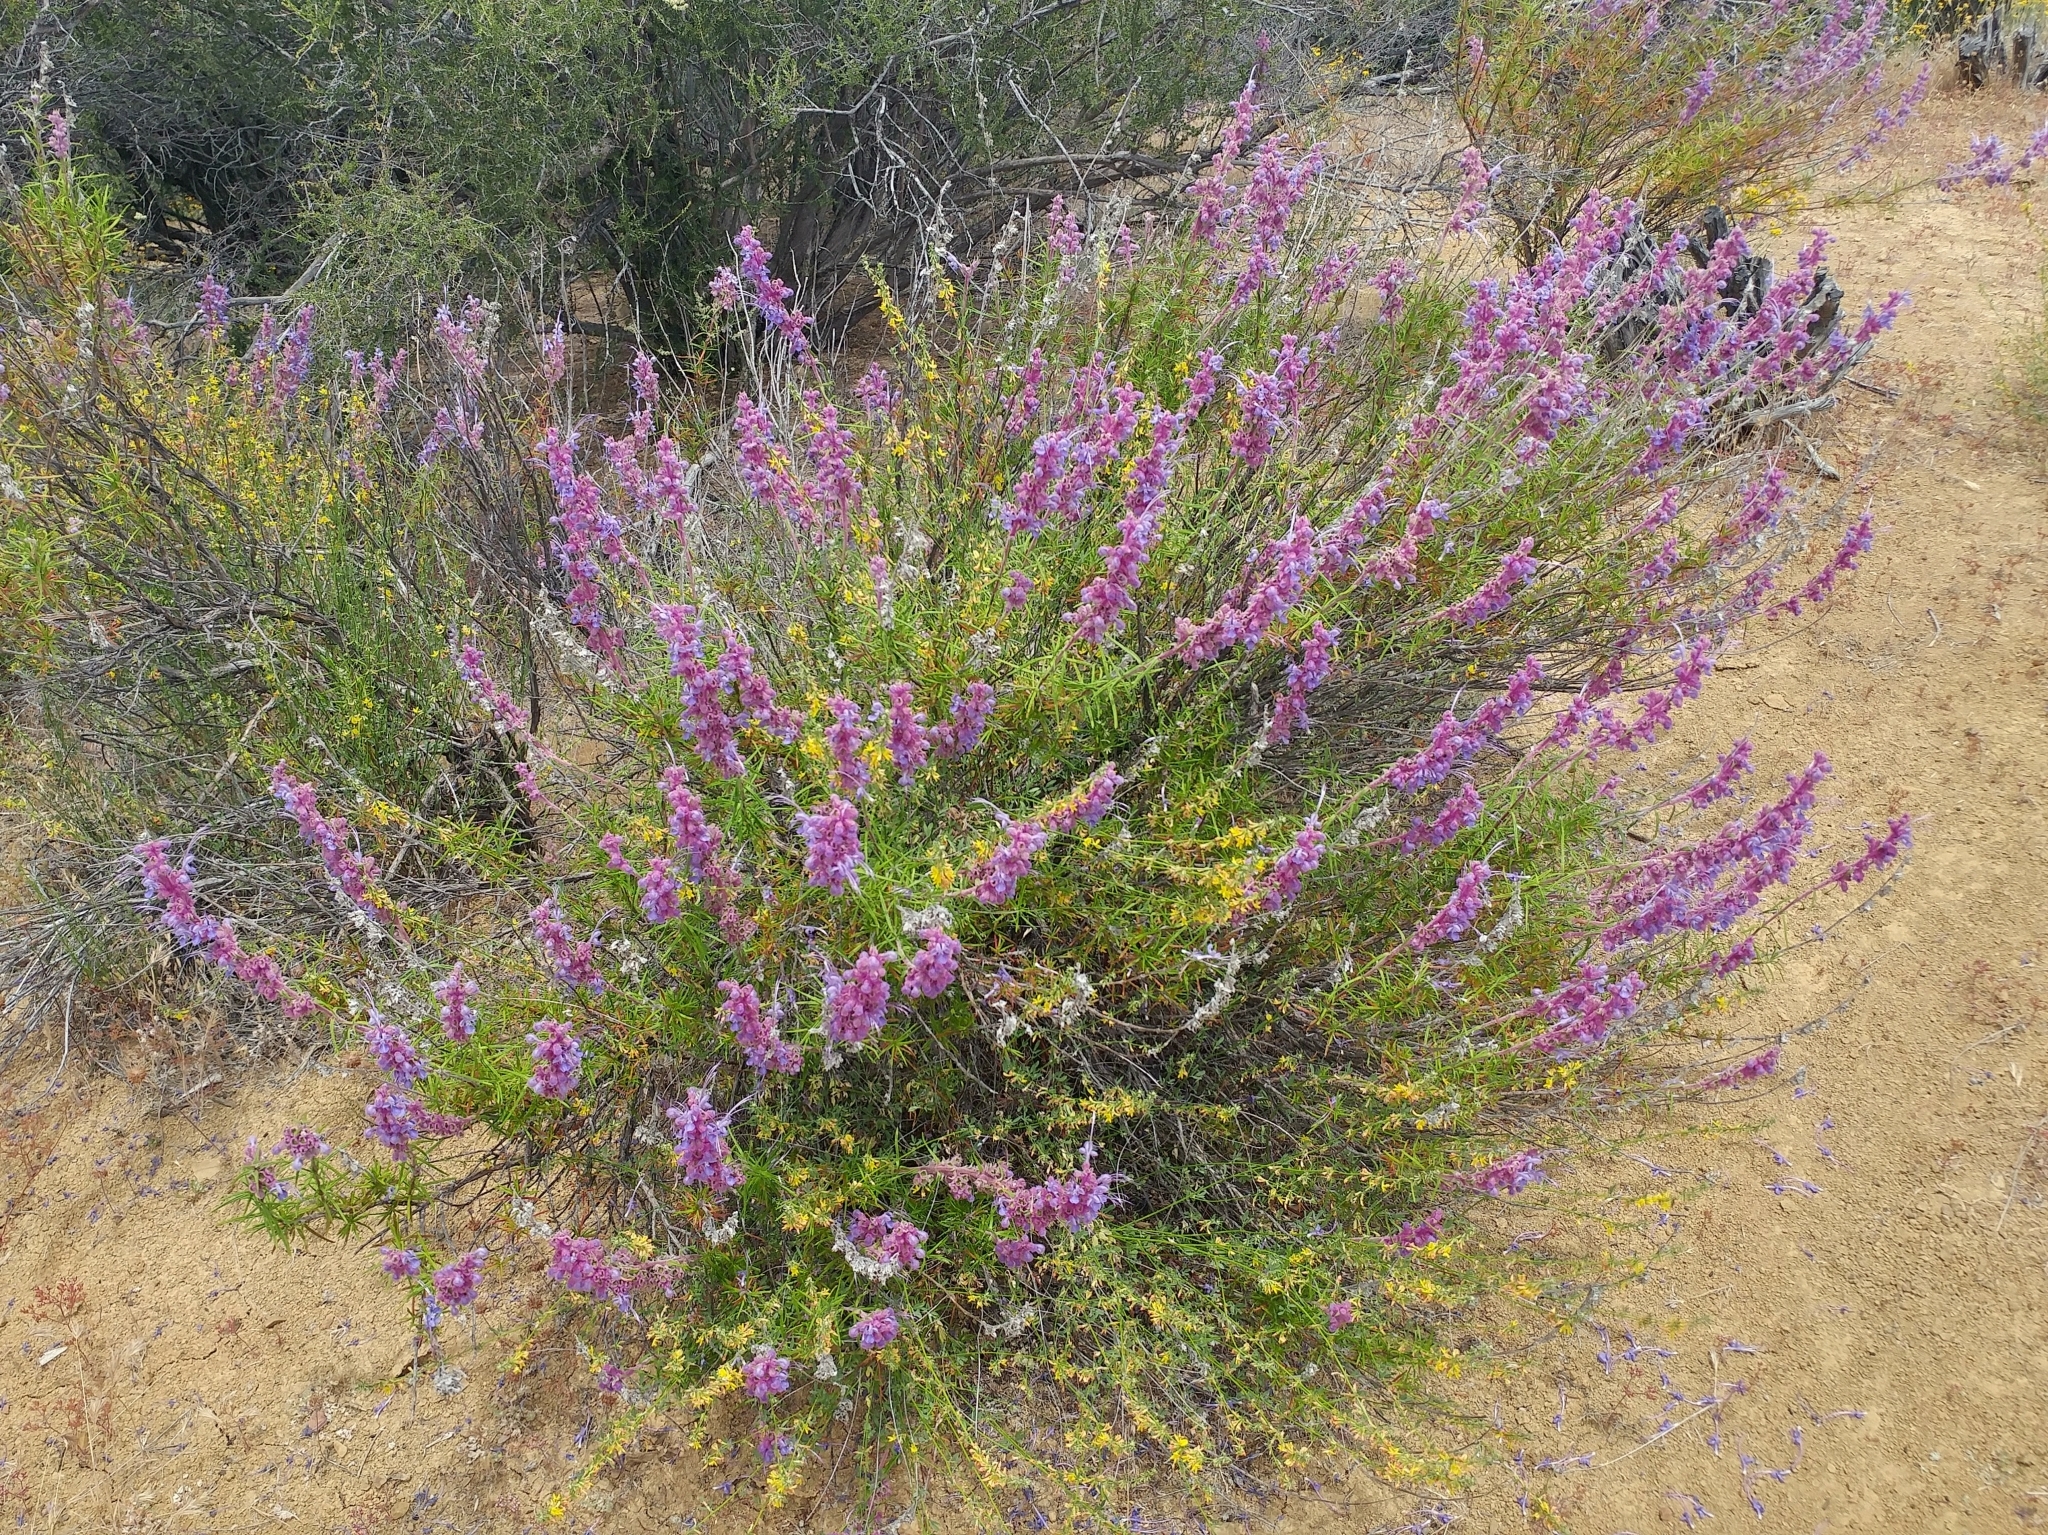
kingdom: Plantae
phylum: Tracheophyta
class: Magnoliopsida
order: Lamiales
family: Lamiaceae
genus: Trichostema
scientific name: Trichostema lanatum
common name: Woolly bluecurls
